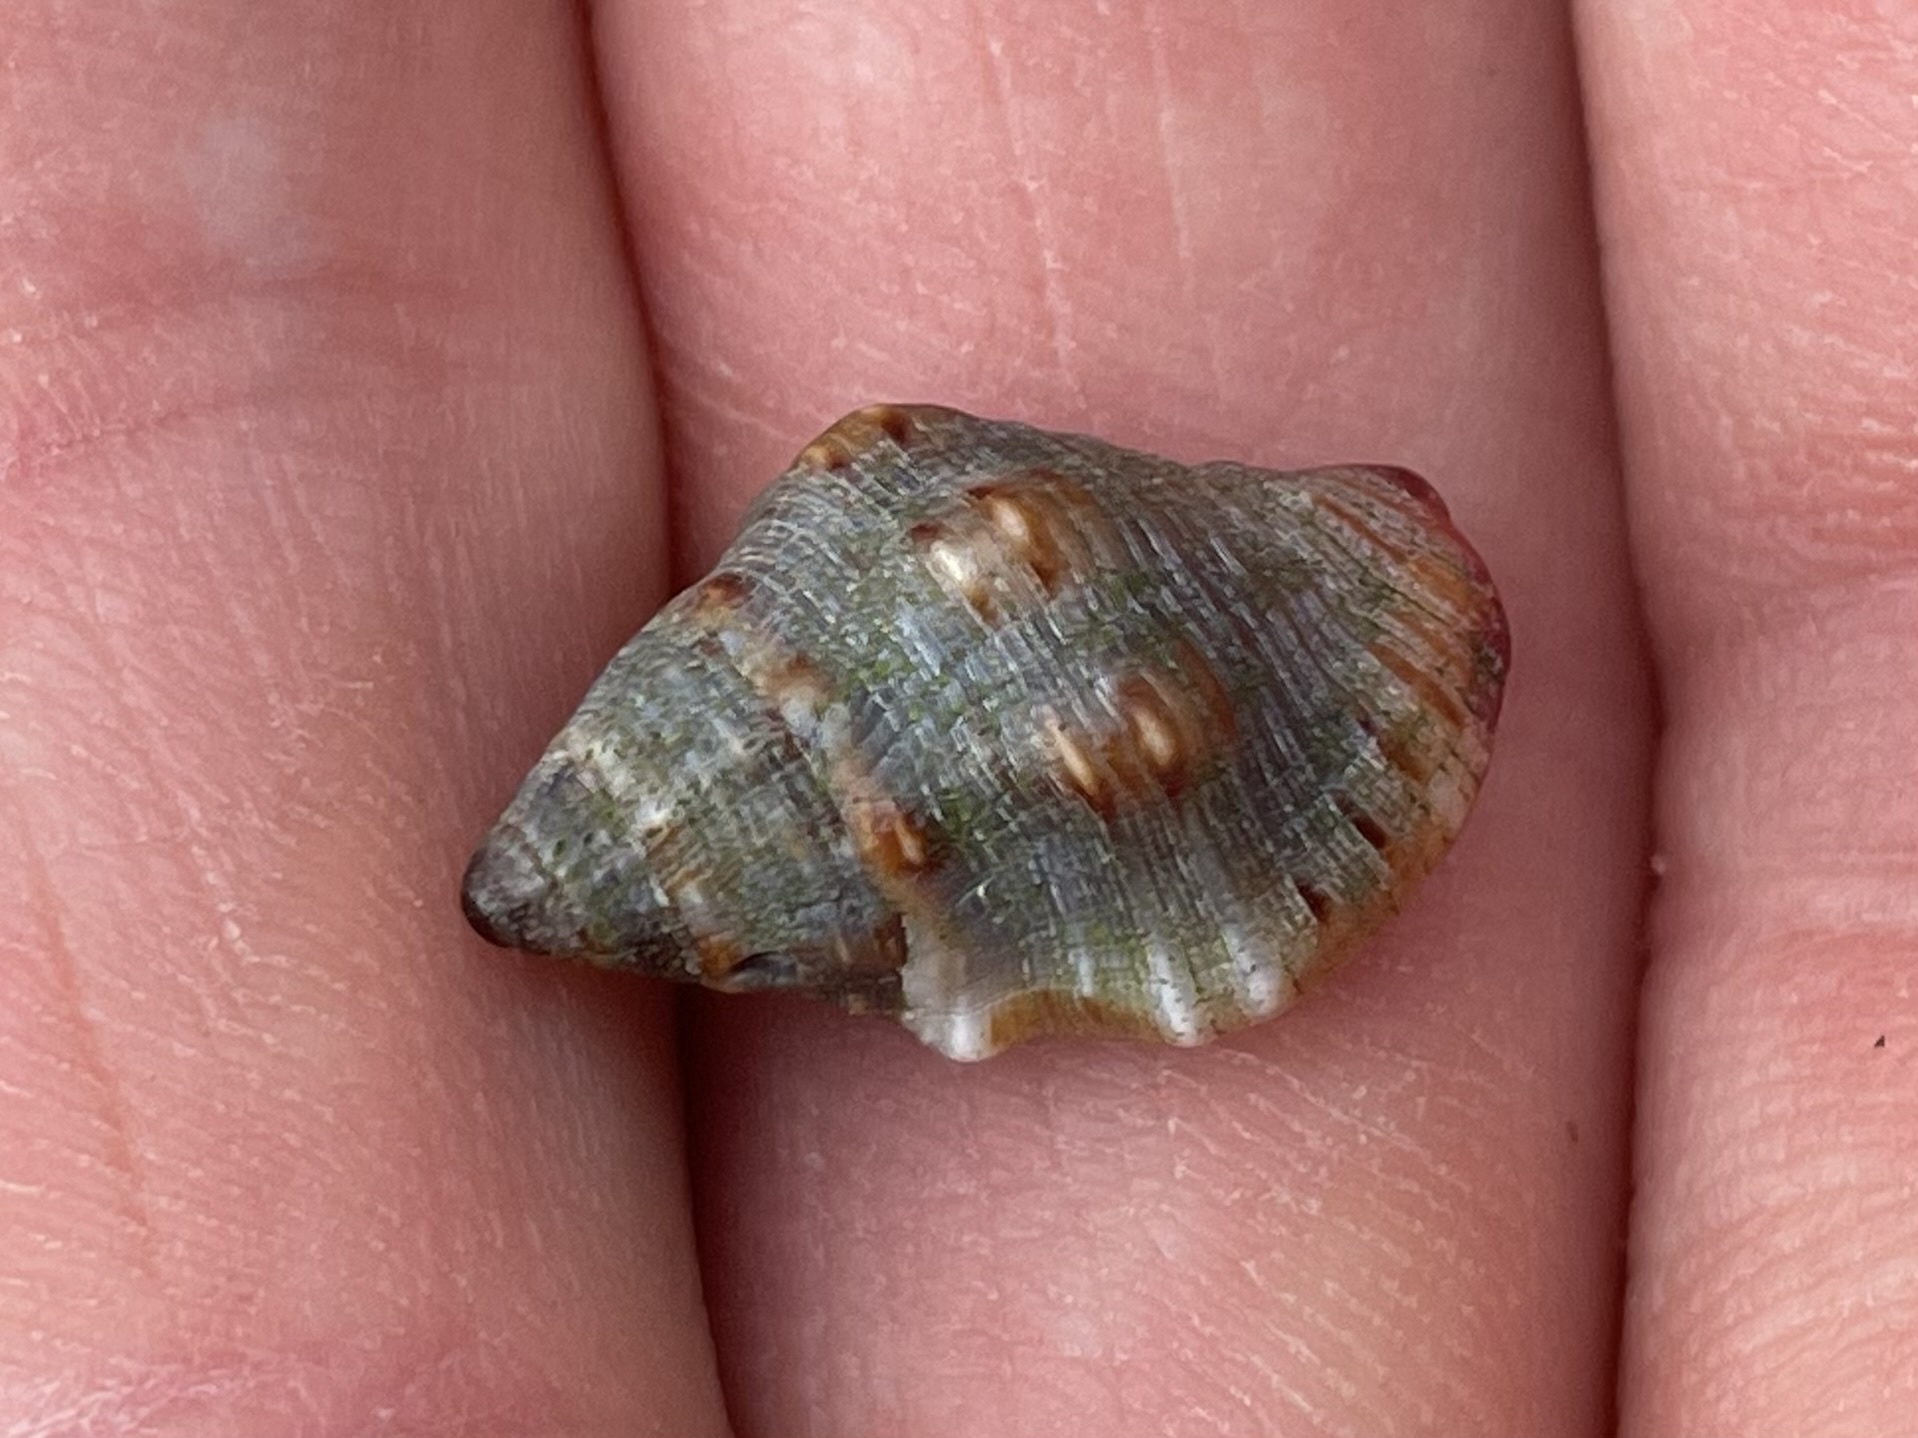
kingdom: Animalia
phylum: Mollusca
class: Gastropoda
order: Neogastropoda
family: Pisaniidae
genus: Gemophos
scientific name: Gemophos sanguinolentus
